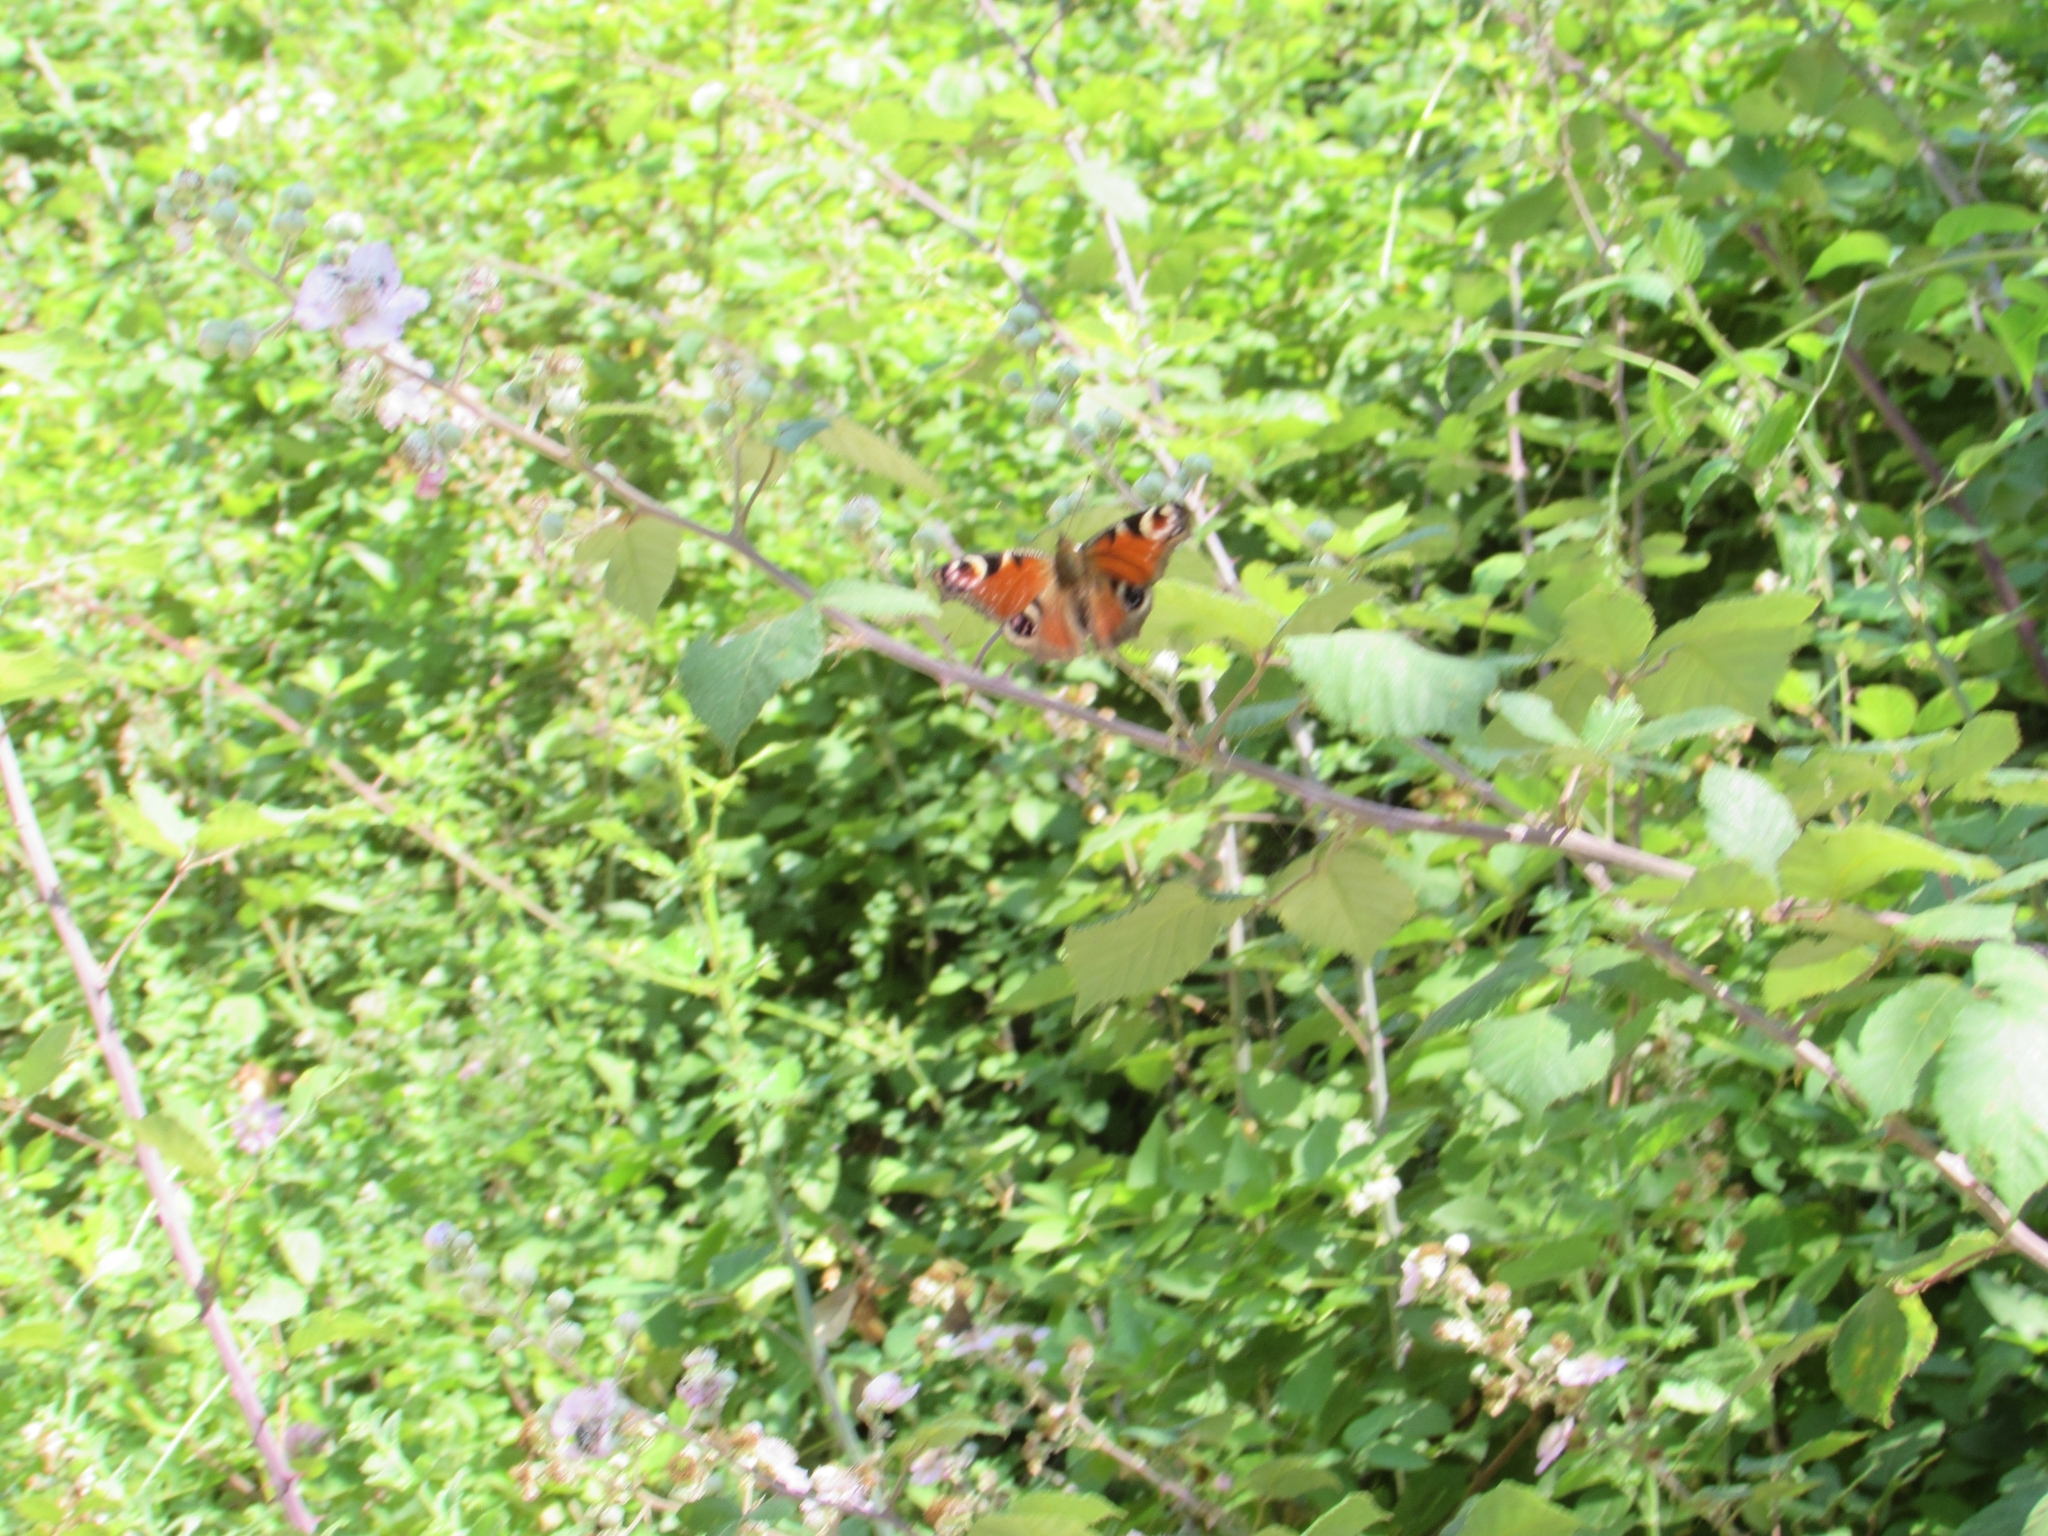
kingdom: Animalia
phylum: Arthropoda
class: Insecta
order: Lepidoptera
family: Nymphalidae
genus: Aglais
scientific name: Aglais io
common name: Peacock
